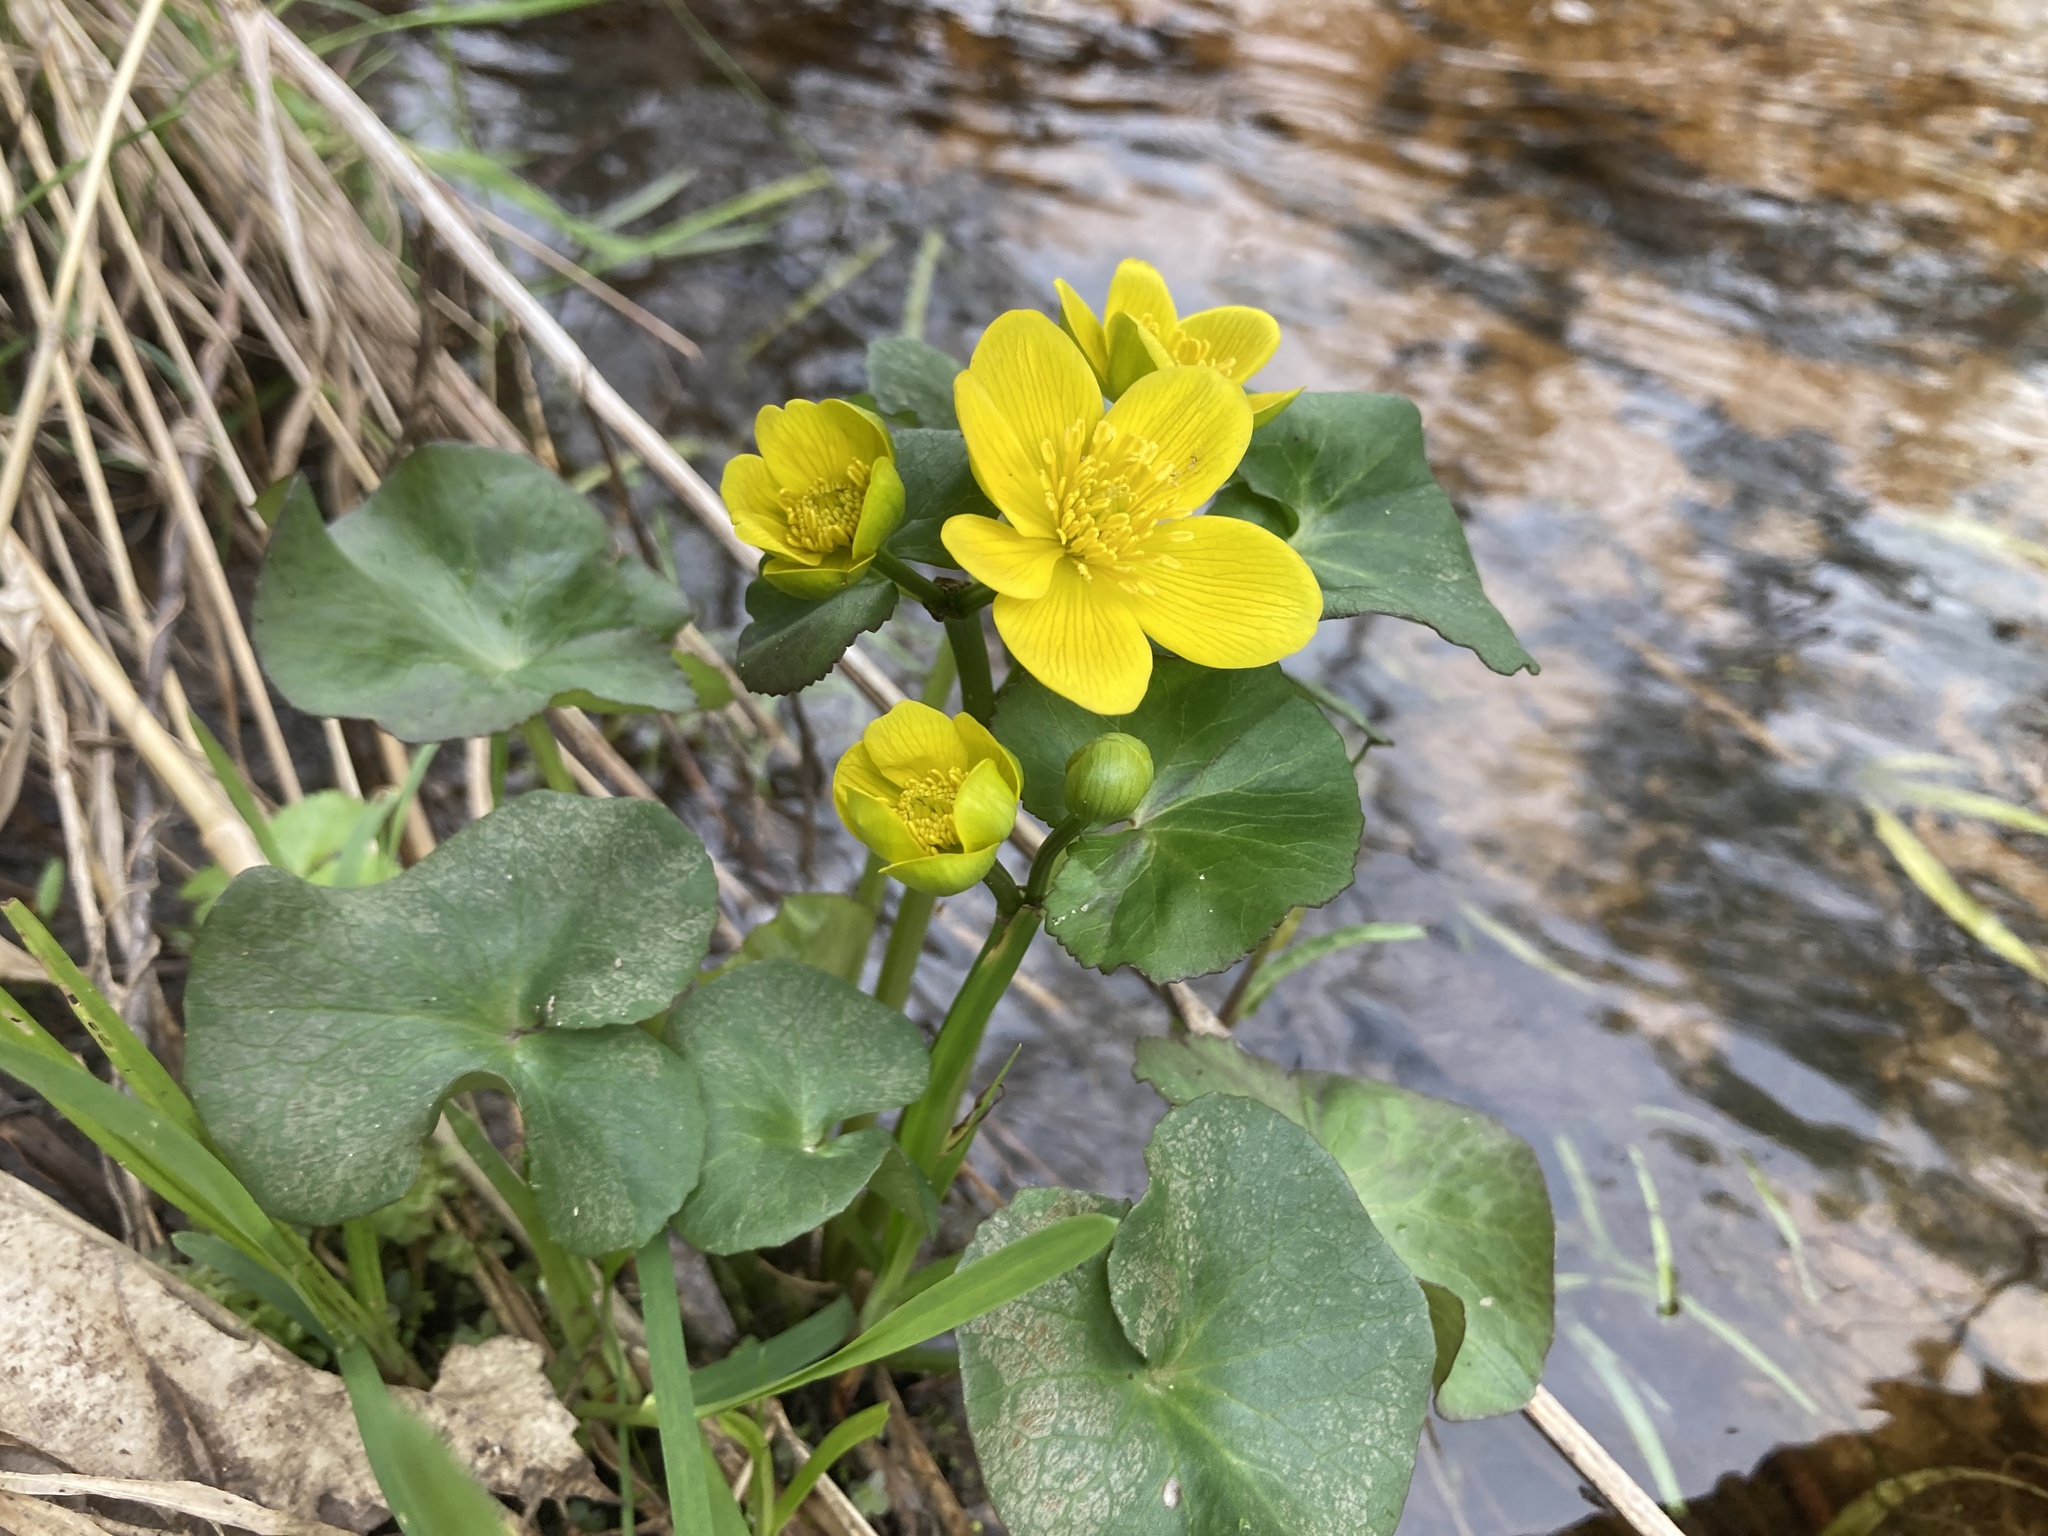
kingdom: Plantae
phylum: Tracheophyta
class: Magnoliopsida
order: Ranunculales
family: Ranunculaceae
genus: Caltha
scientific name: Caltha palustris
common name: Marsh marigold
